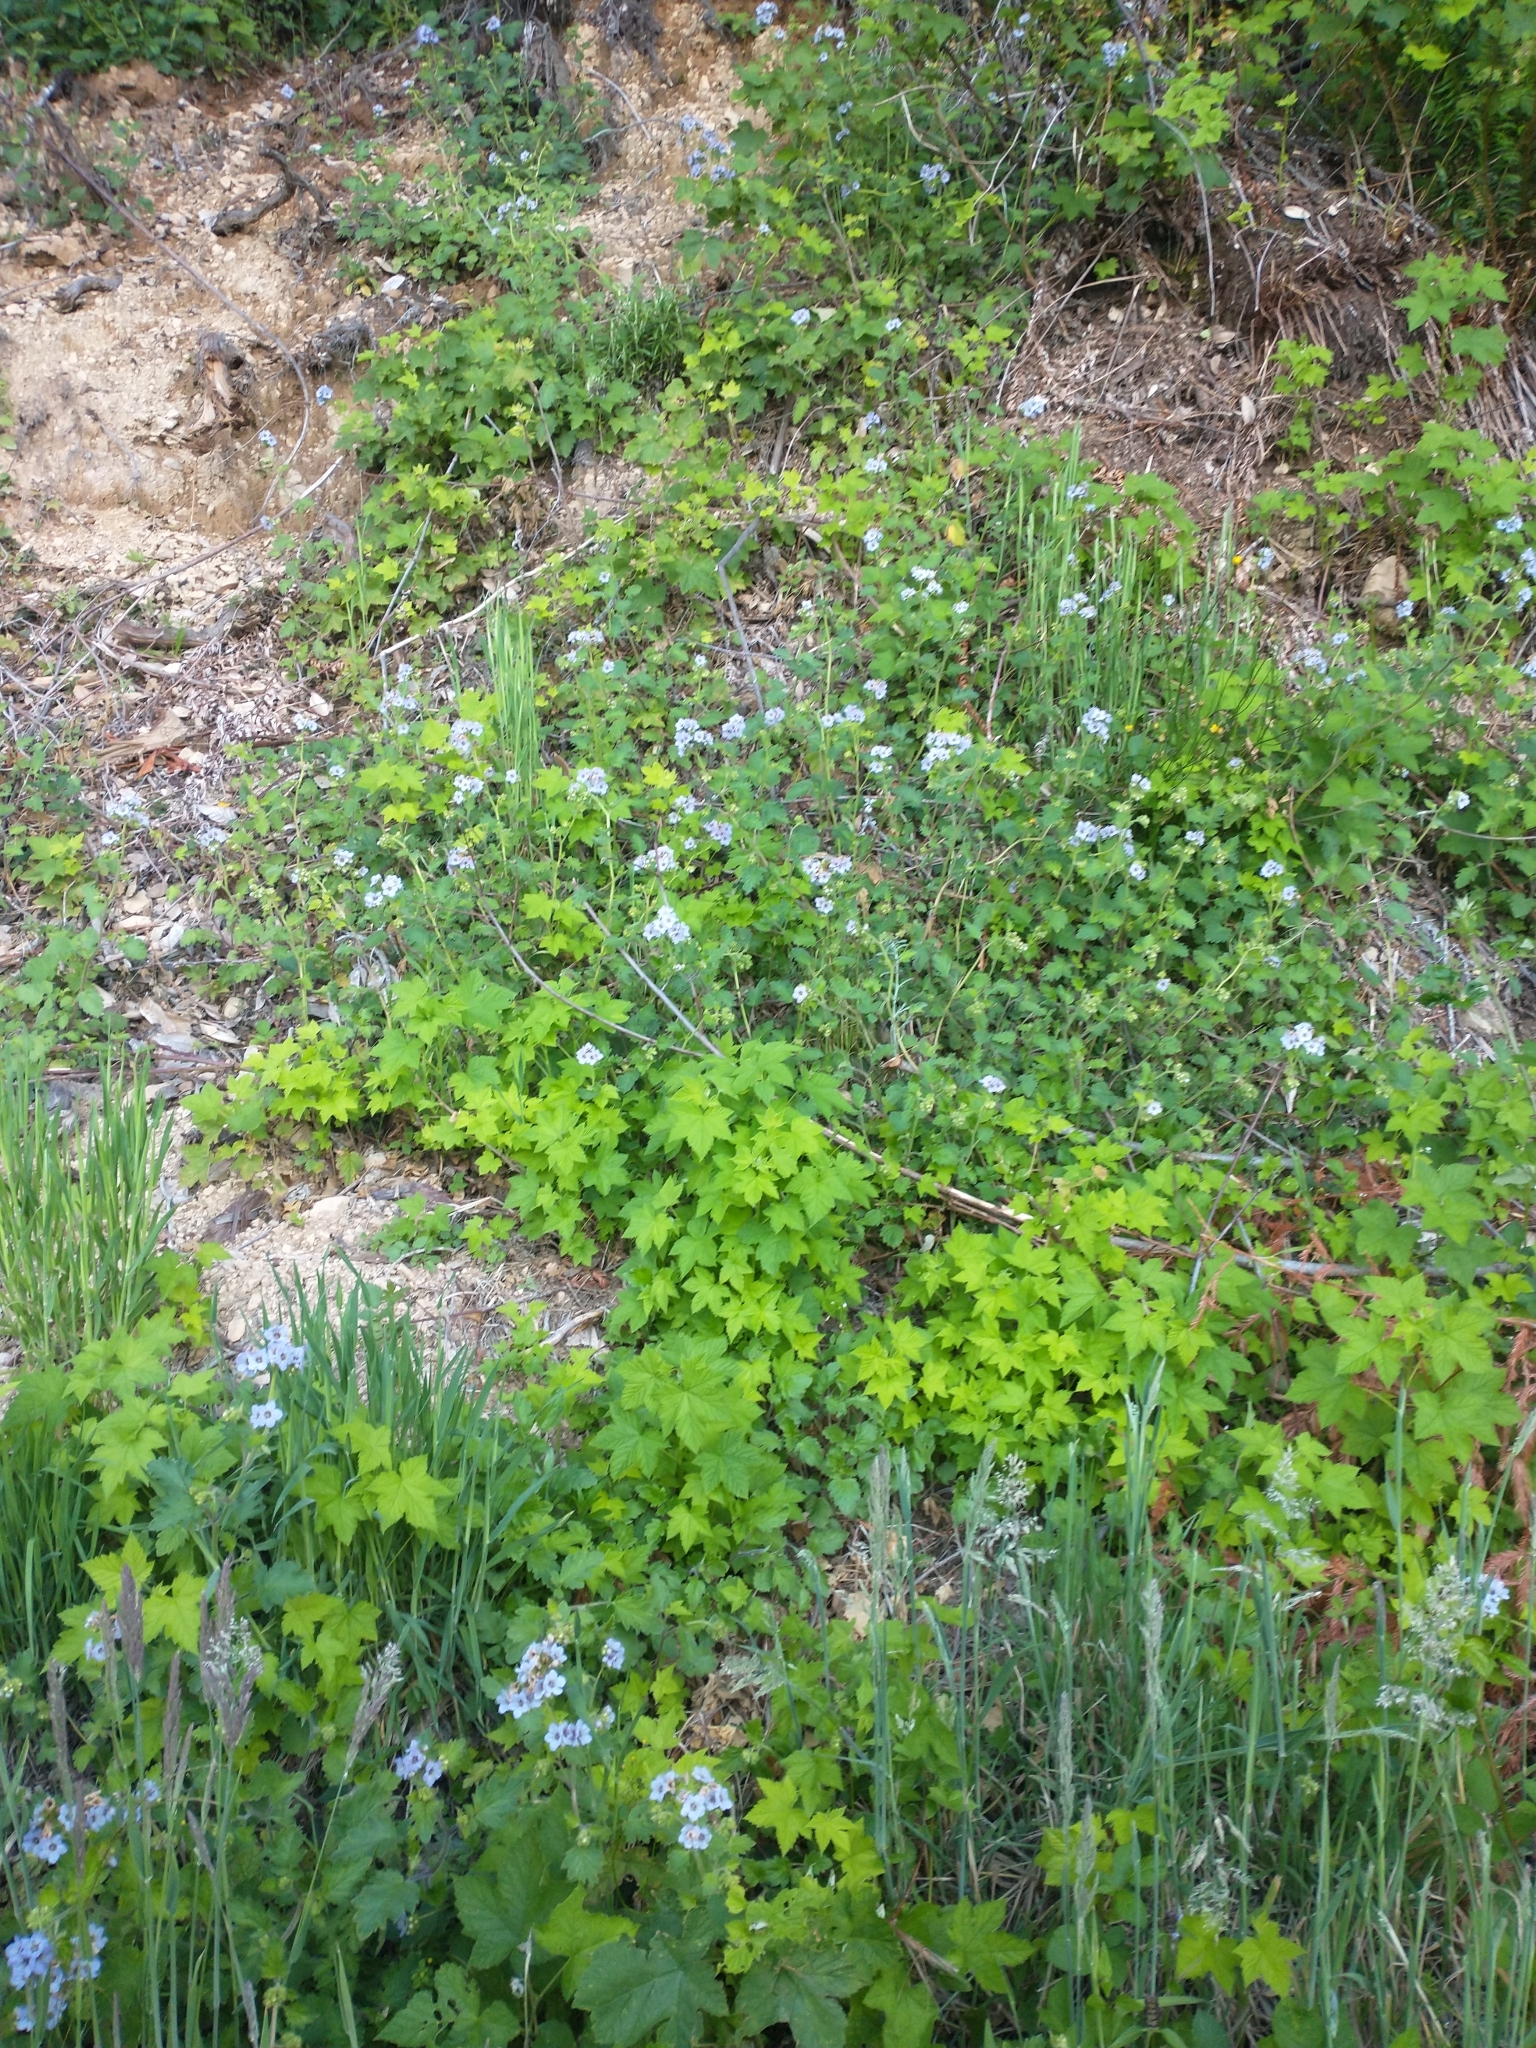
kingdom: Plantae
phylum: Tracheophyta
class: Magnoliopsida
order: Boraginales
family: Hydrophyllaceae
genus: Phacelia
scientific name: Phacelia bolanderi
